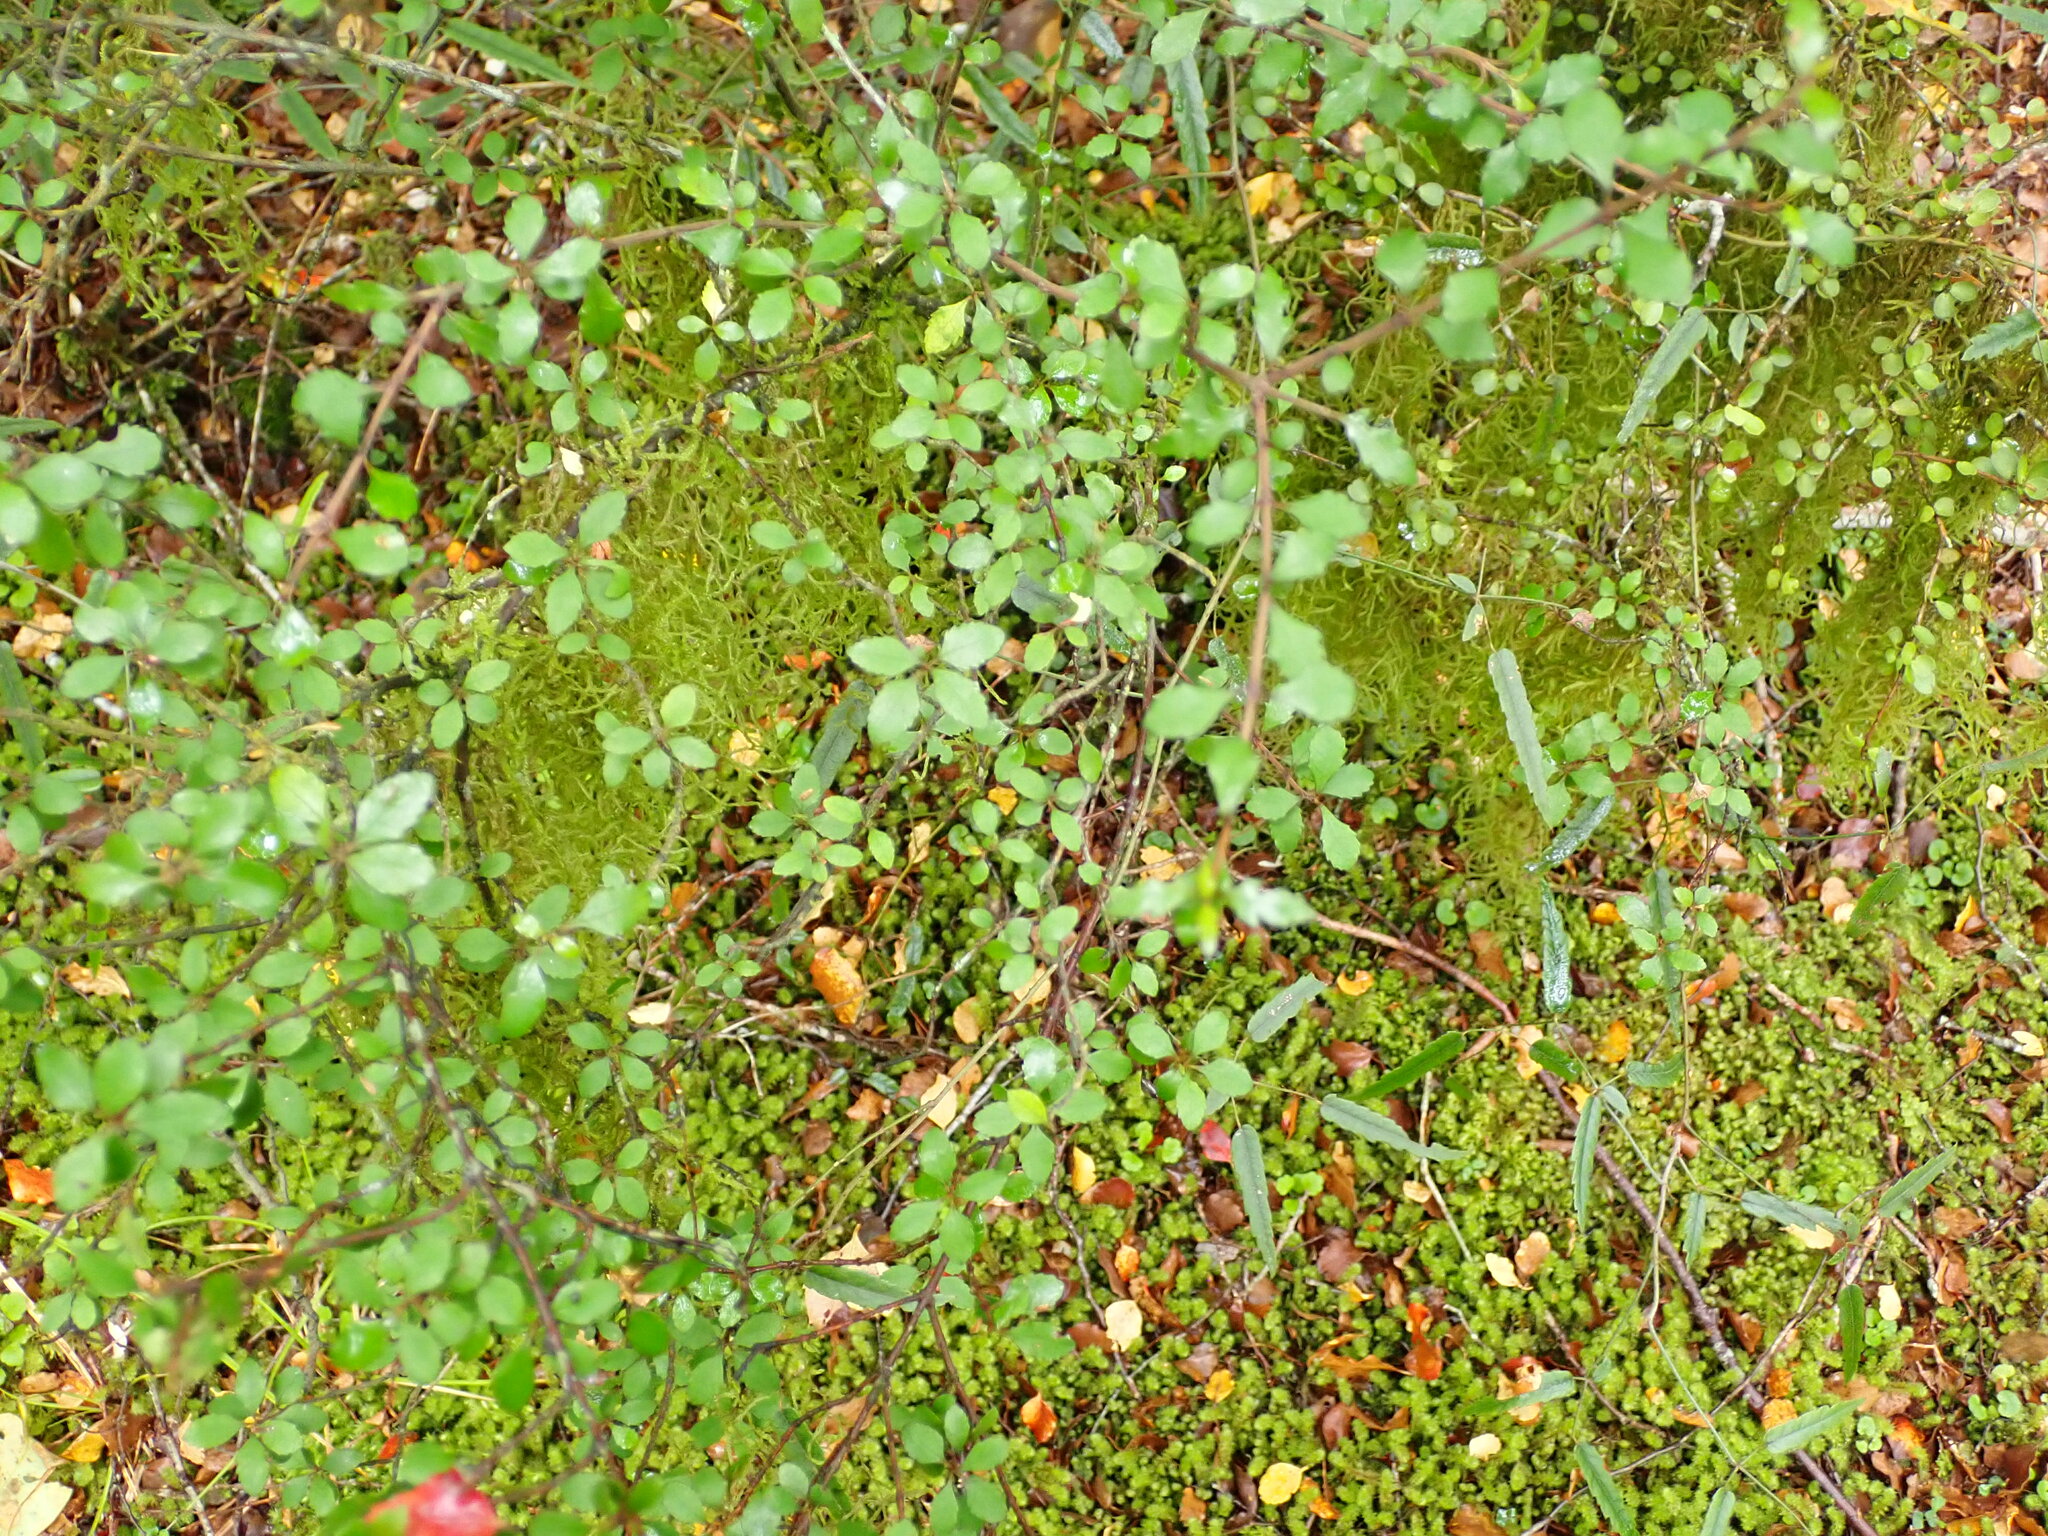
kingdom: Plantae
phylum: Tracheophyta
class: Magnoliopsida
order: Oxalidales
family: Elaeocarpaceae
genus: Aristotelia
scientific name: Aristotelia fruticosa
